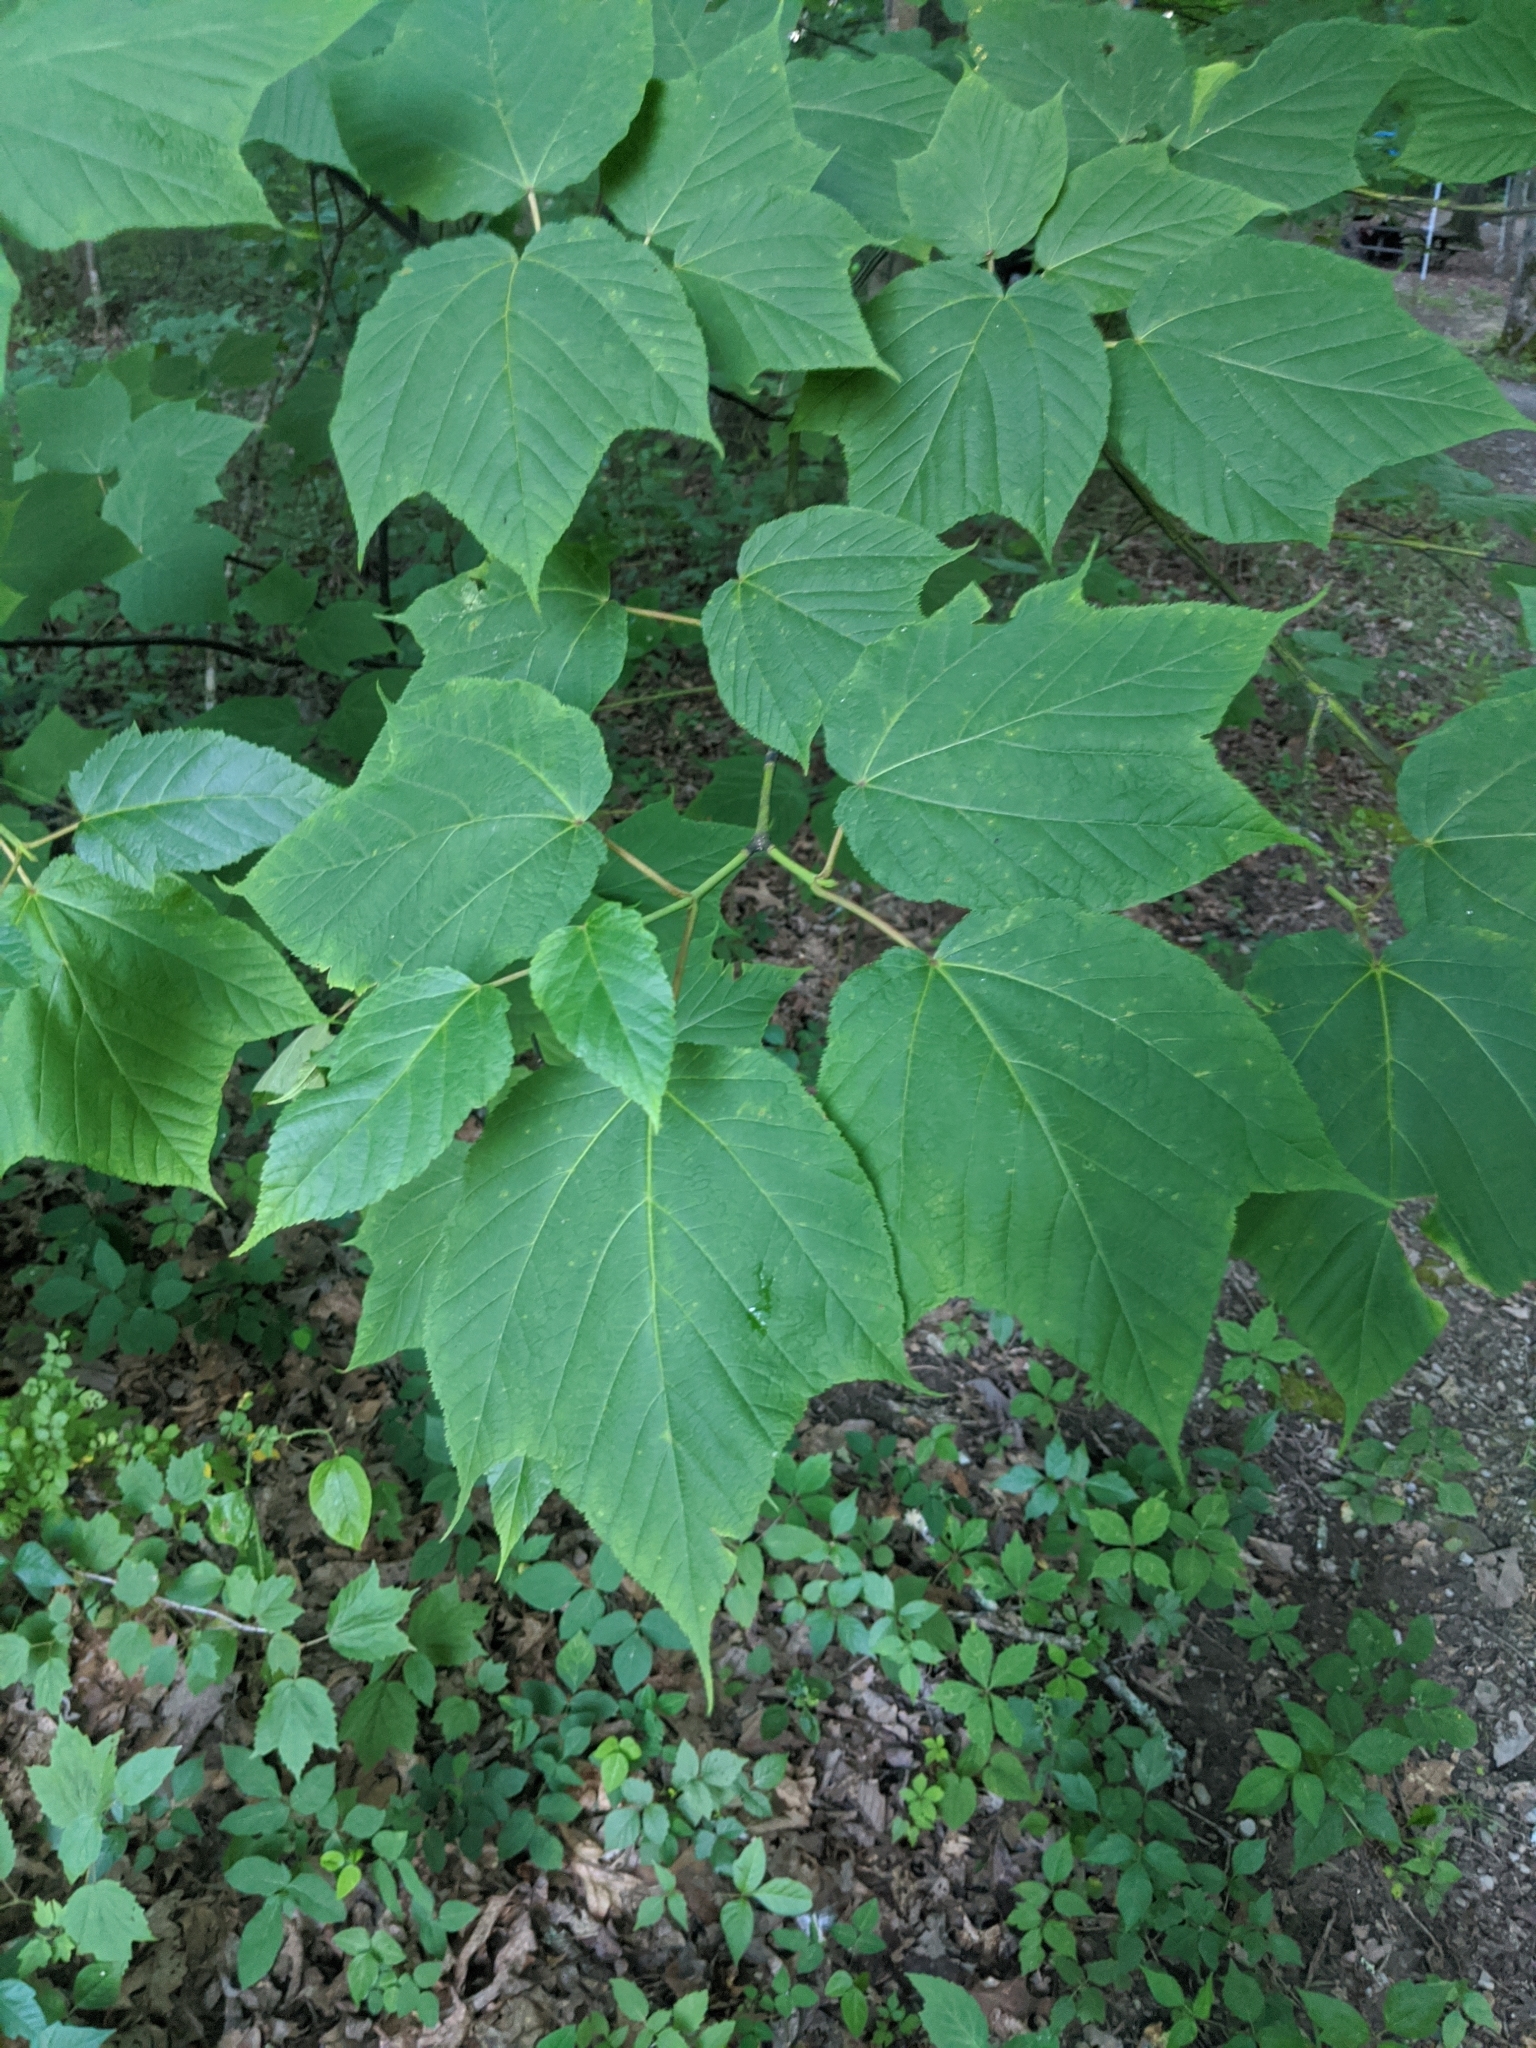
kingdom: Plantae
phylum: Tracheophyta
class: Magnoliopsida
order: Sapindales
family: Sapindaceae
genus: Acer
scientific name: Acer pensylvanicum
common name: Moosewood
